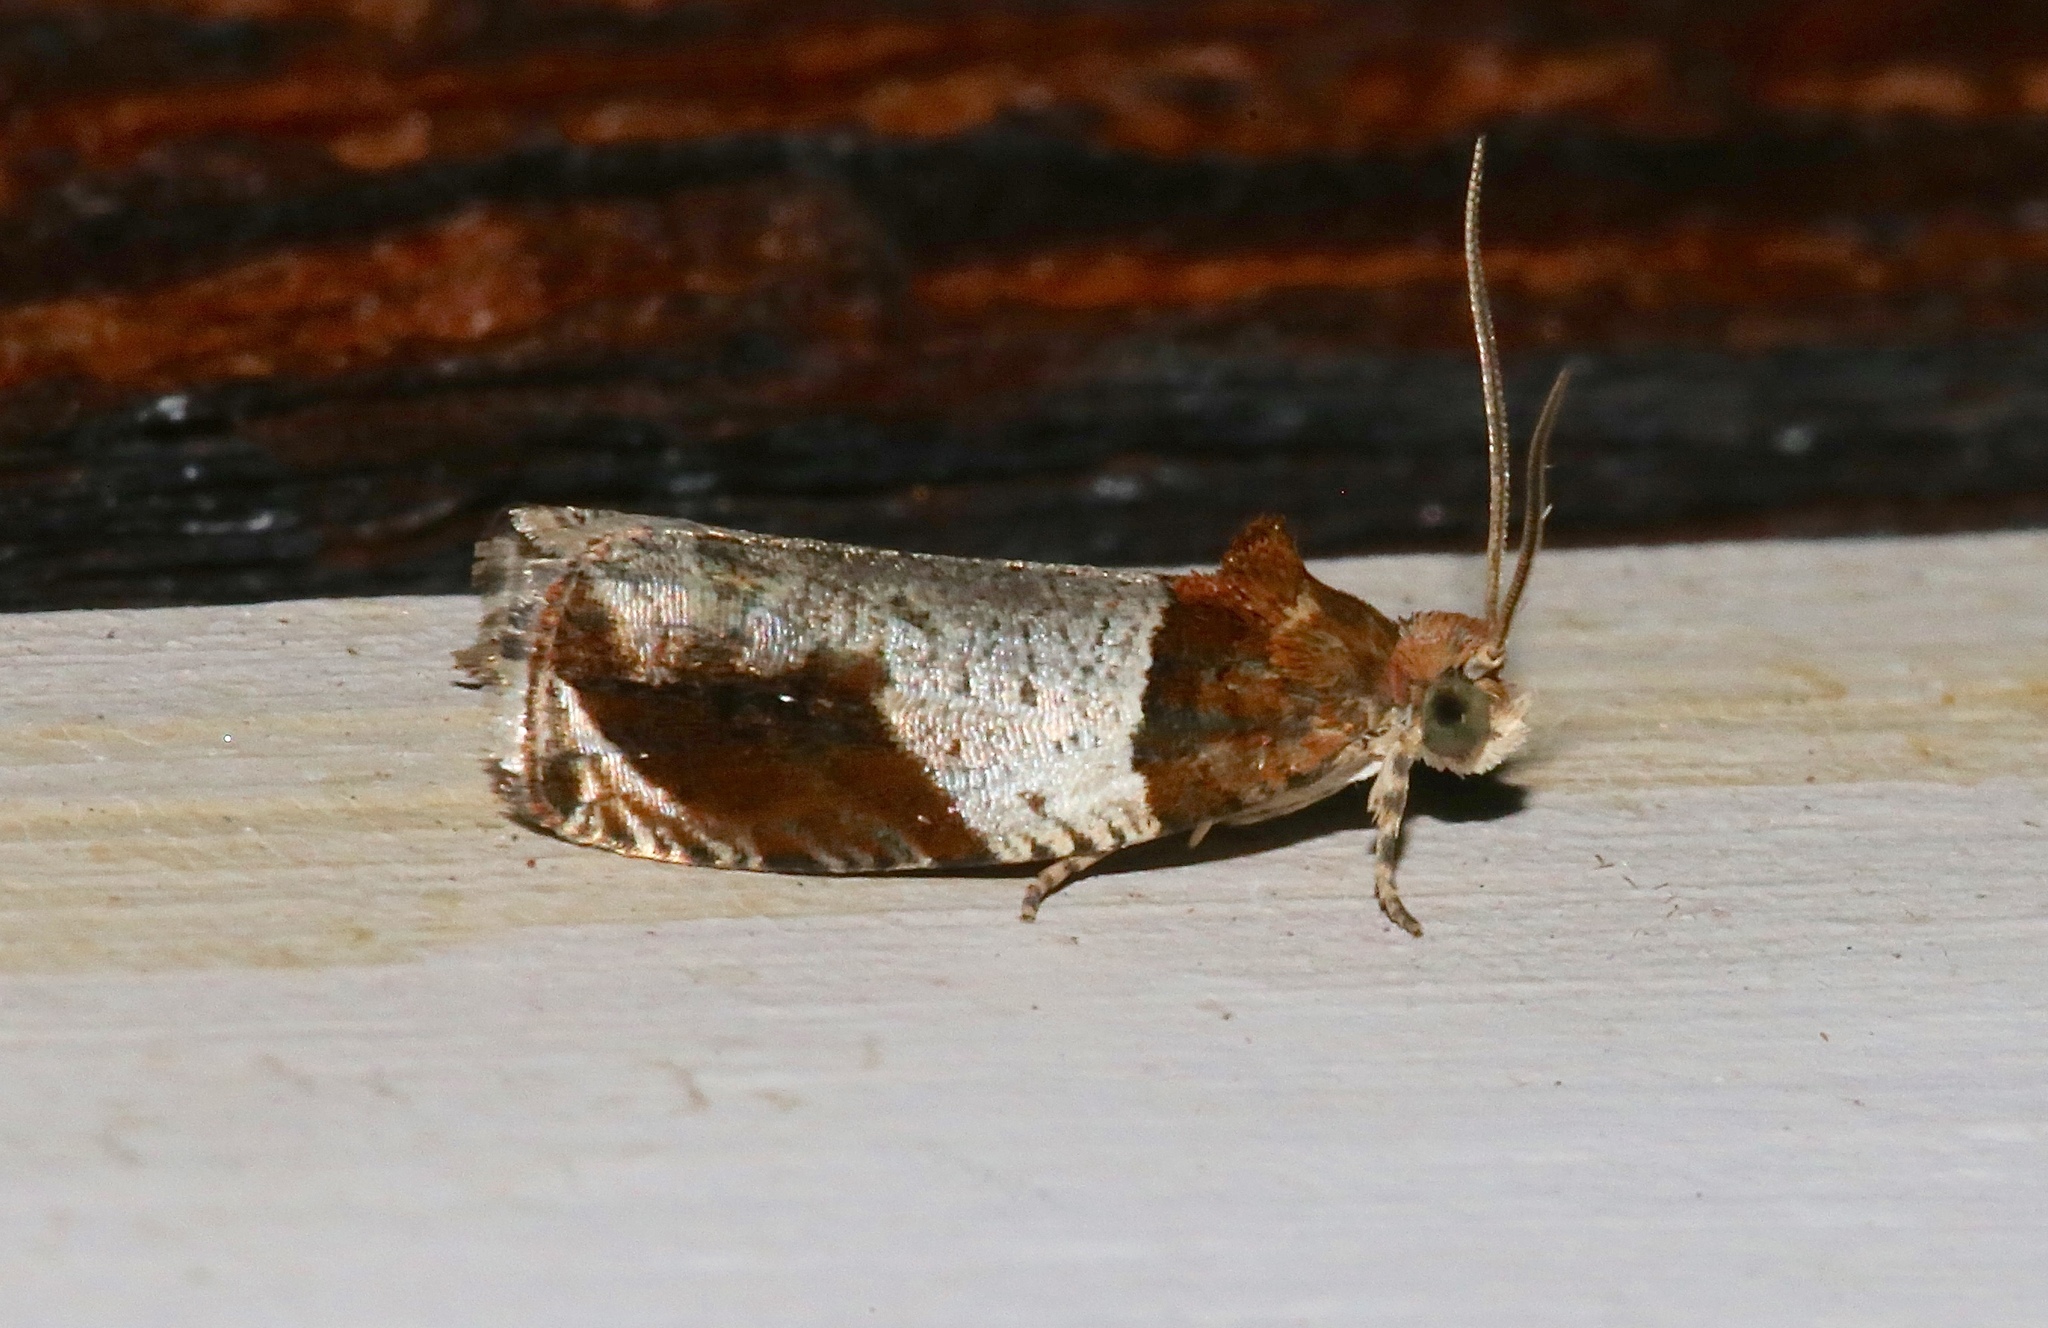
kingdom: Animalia
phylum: Arthropoda
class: Insecta
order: Lepidoptera
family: Tortricidae
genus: Olethreutes
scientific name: Olethreutes ferriferana
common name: Hydrangea leaftier moth
